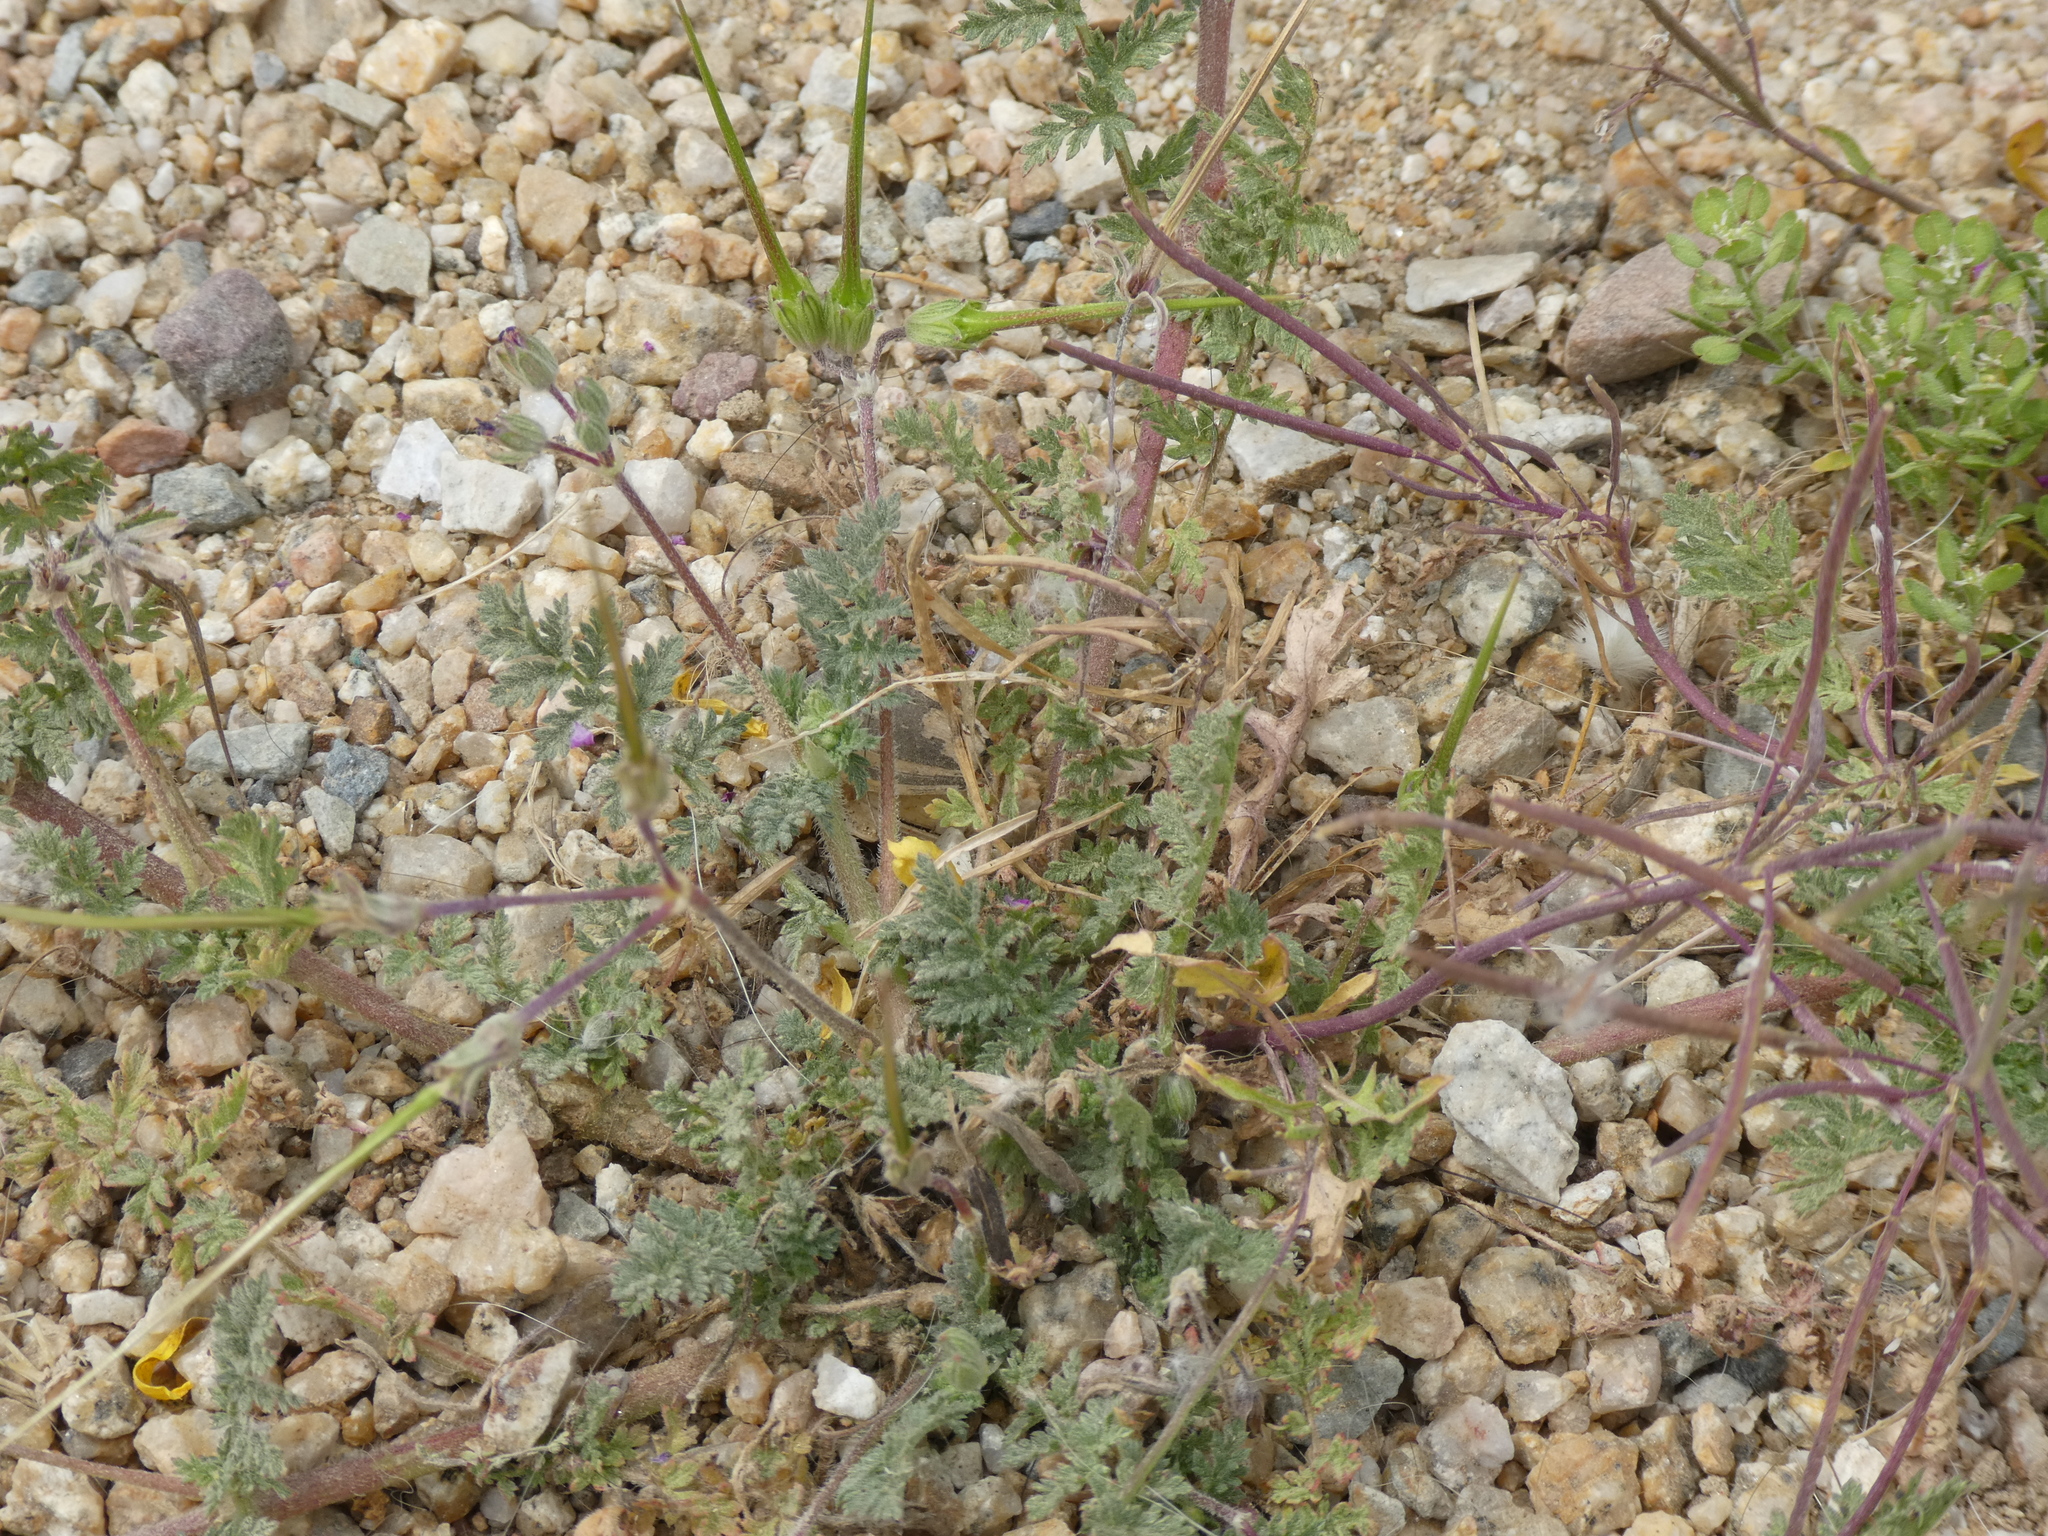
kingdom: Plantae
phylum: Tracheophyta
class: Magnoliopsida
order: Geraniales
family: Geraniaceae
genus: Erodium
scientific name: Erodium cicutarium
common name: Common stork's-bill
